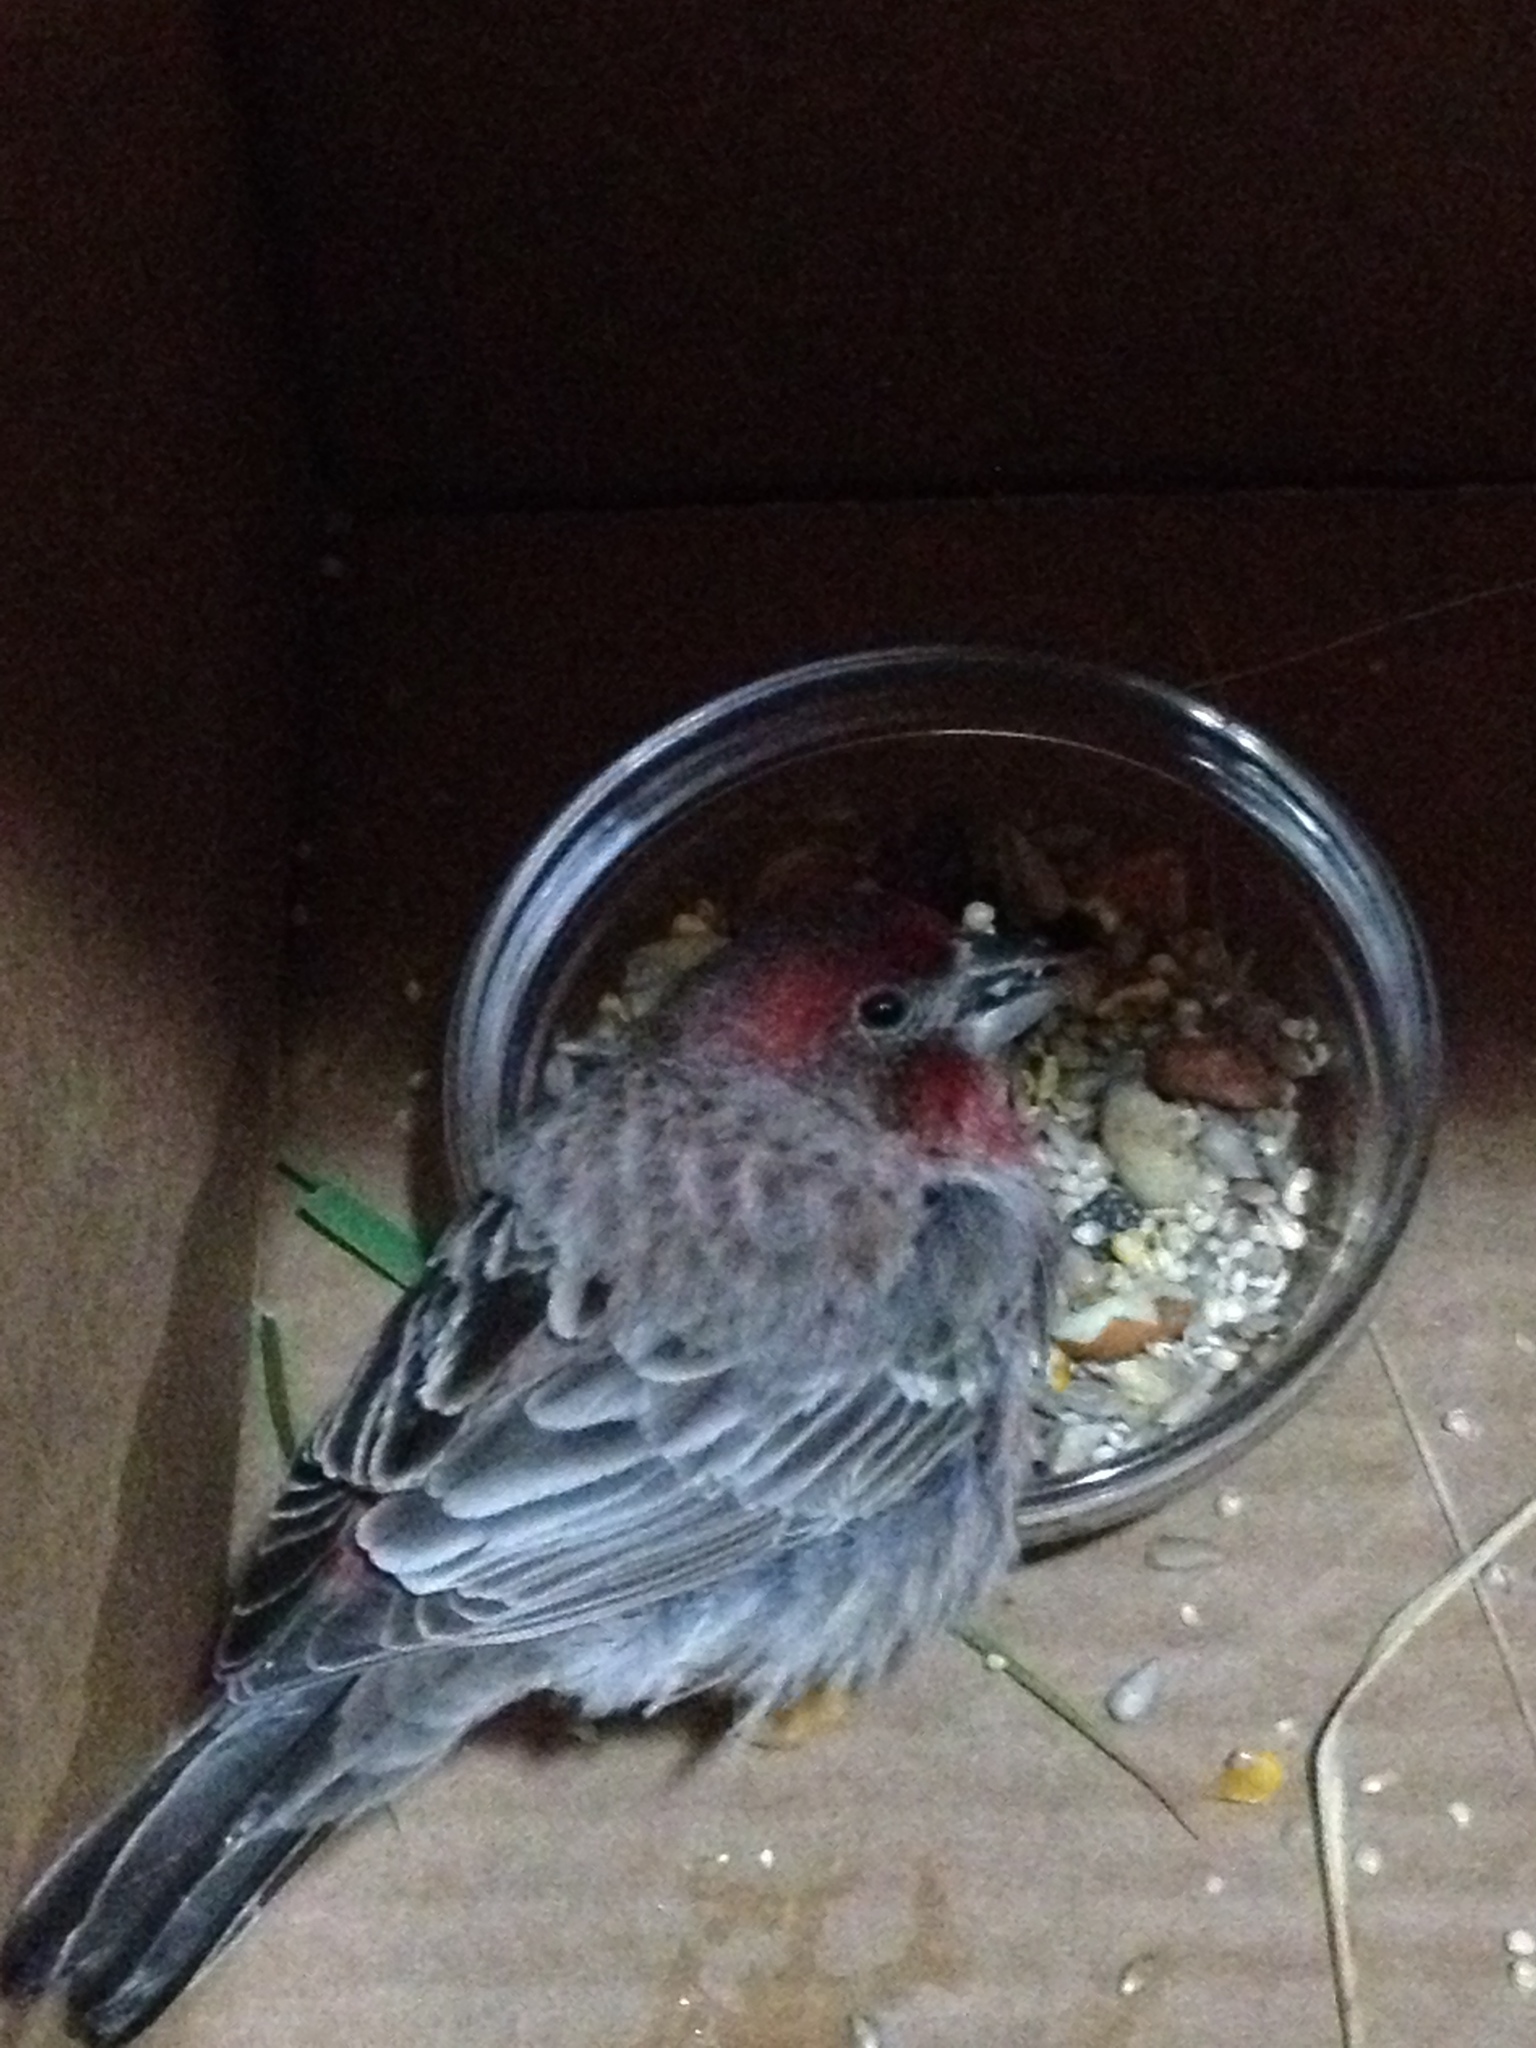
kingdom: Animalia
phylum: Chordata
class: Aves
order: Passeriformes
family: Fringillidae
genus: Haemorhous
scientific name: Haemorhous mexicanus
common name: House finch
